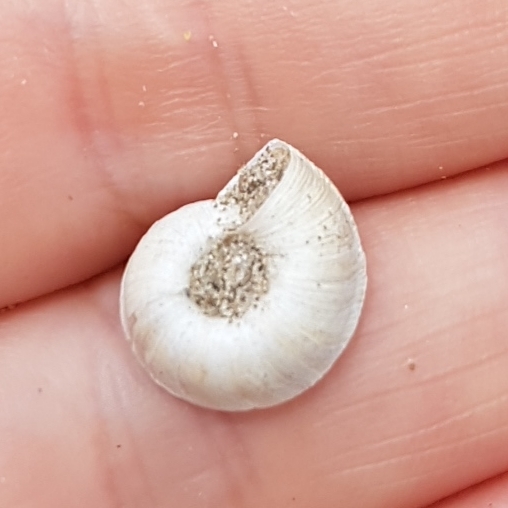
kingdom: Animalia
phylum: Mollusca
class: Gastropoda
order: Stylommatophora
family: Geomitridae
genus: Xerosecta
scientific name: Xerosecta explanata
